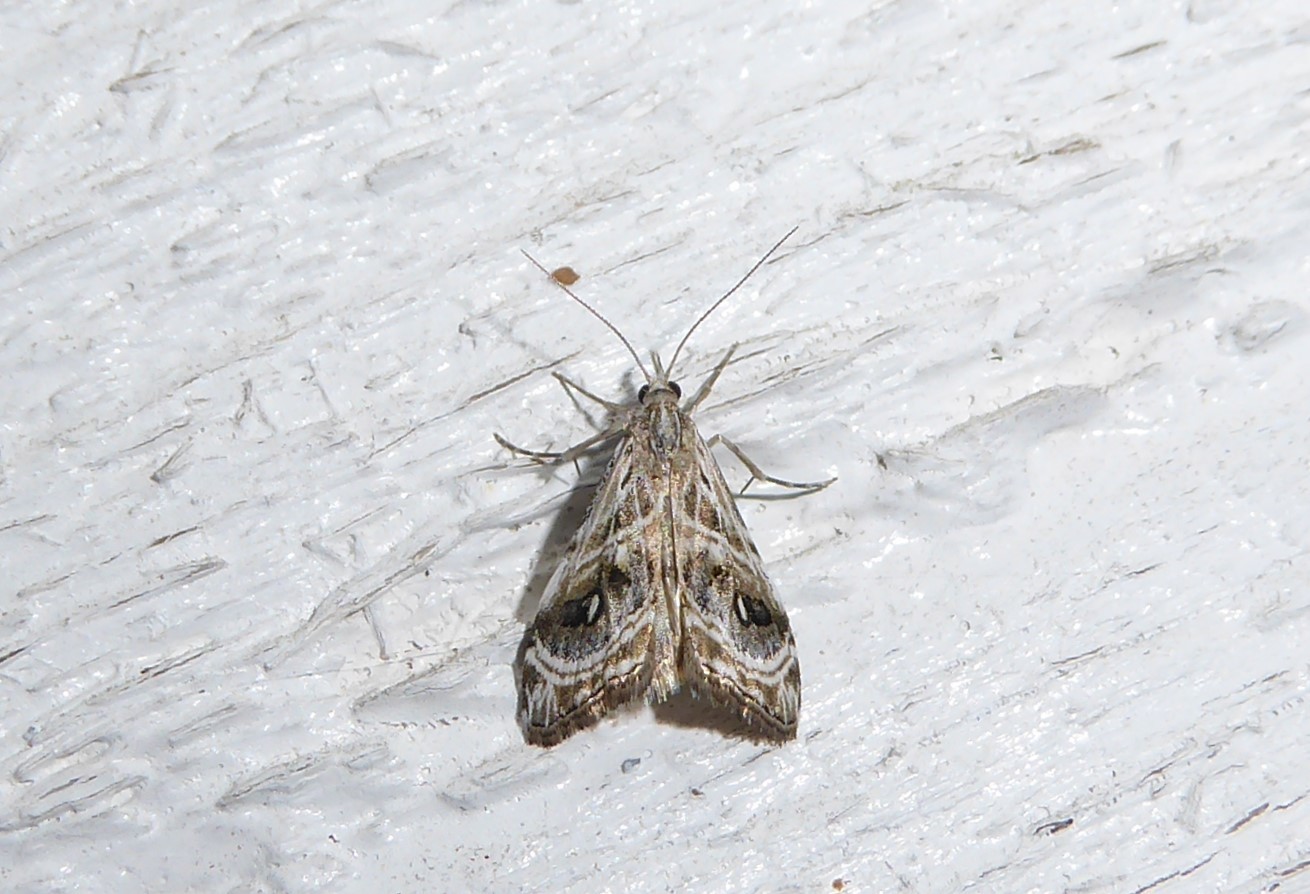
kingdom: Animalia
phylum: Arthropoda
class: Insecta
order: Lepidoptera
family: Crambidae
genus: Gadira
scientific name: Gadira acerella
